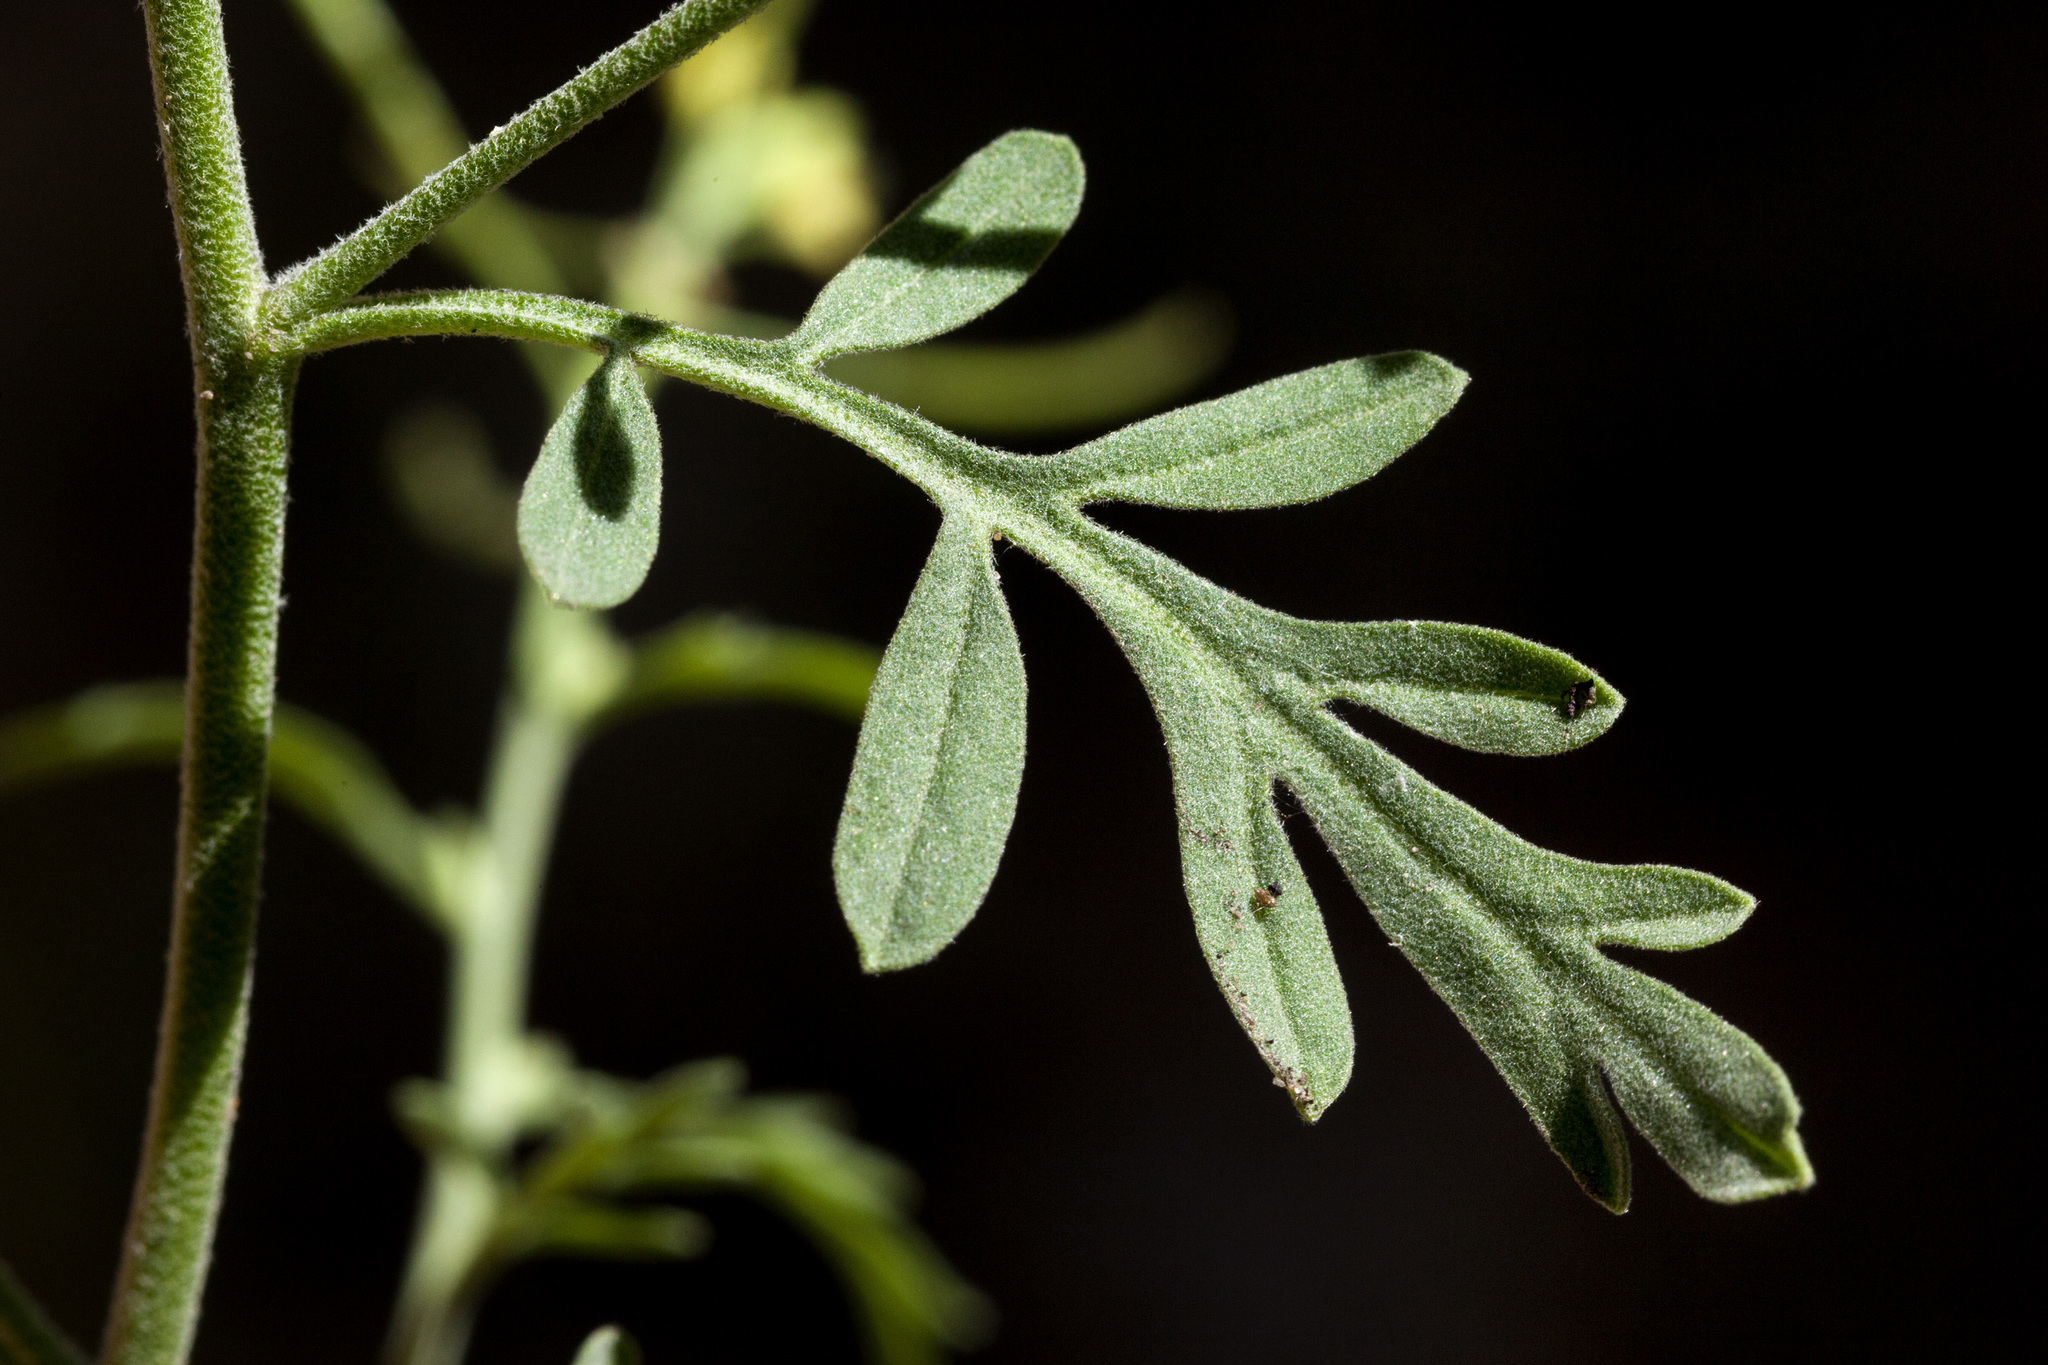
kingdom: Plantae
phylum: Tracheophyta
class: Magnoliopsida
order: Brassicales
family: Brassicaceae
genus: Descurainia
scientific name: Descurainia obtusa
